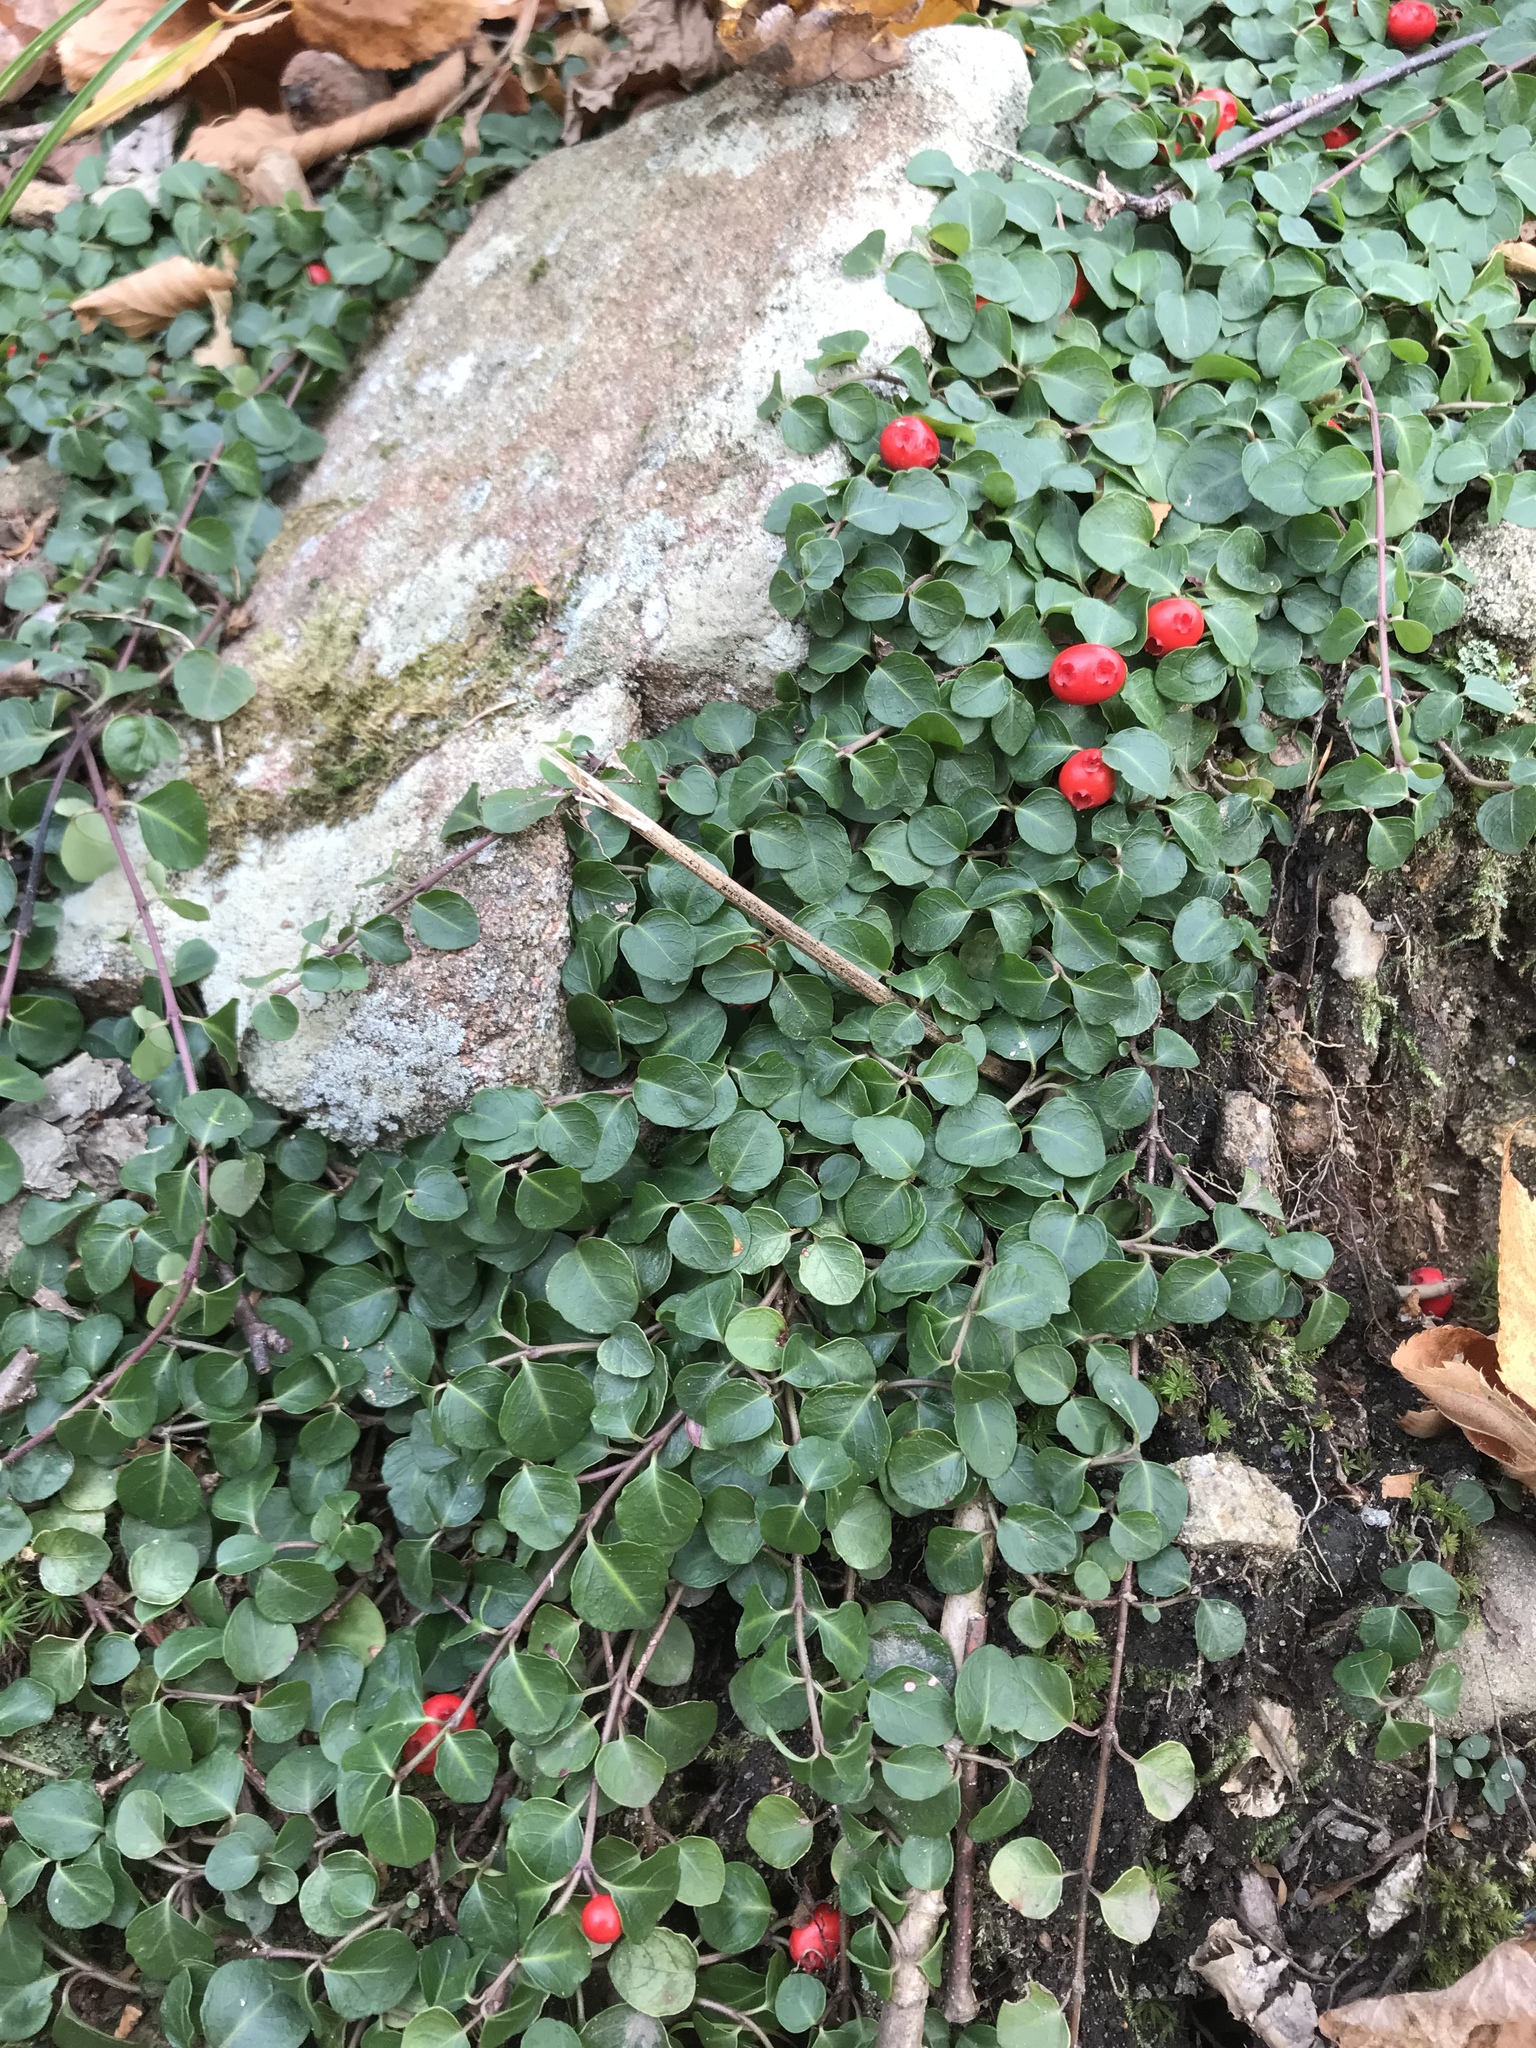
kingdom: Plantae
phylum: Tracheophyta
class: Magnoliopsida
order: Gentianales
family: Rubiaceae
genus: Mitchella
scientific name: Mitchella repens
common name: Partridge-berry
